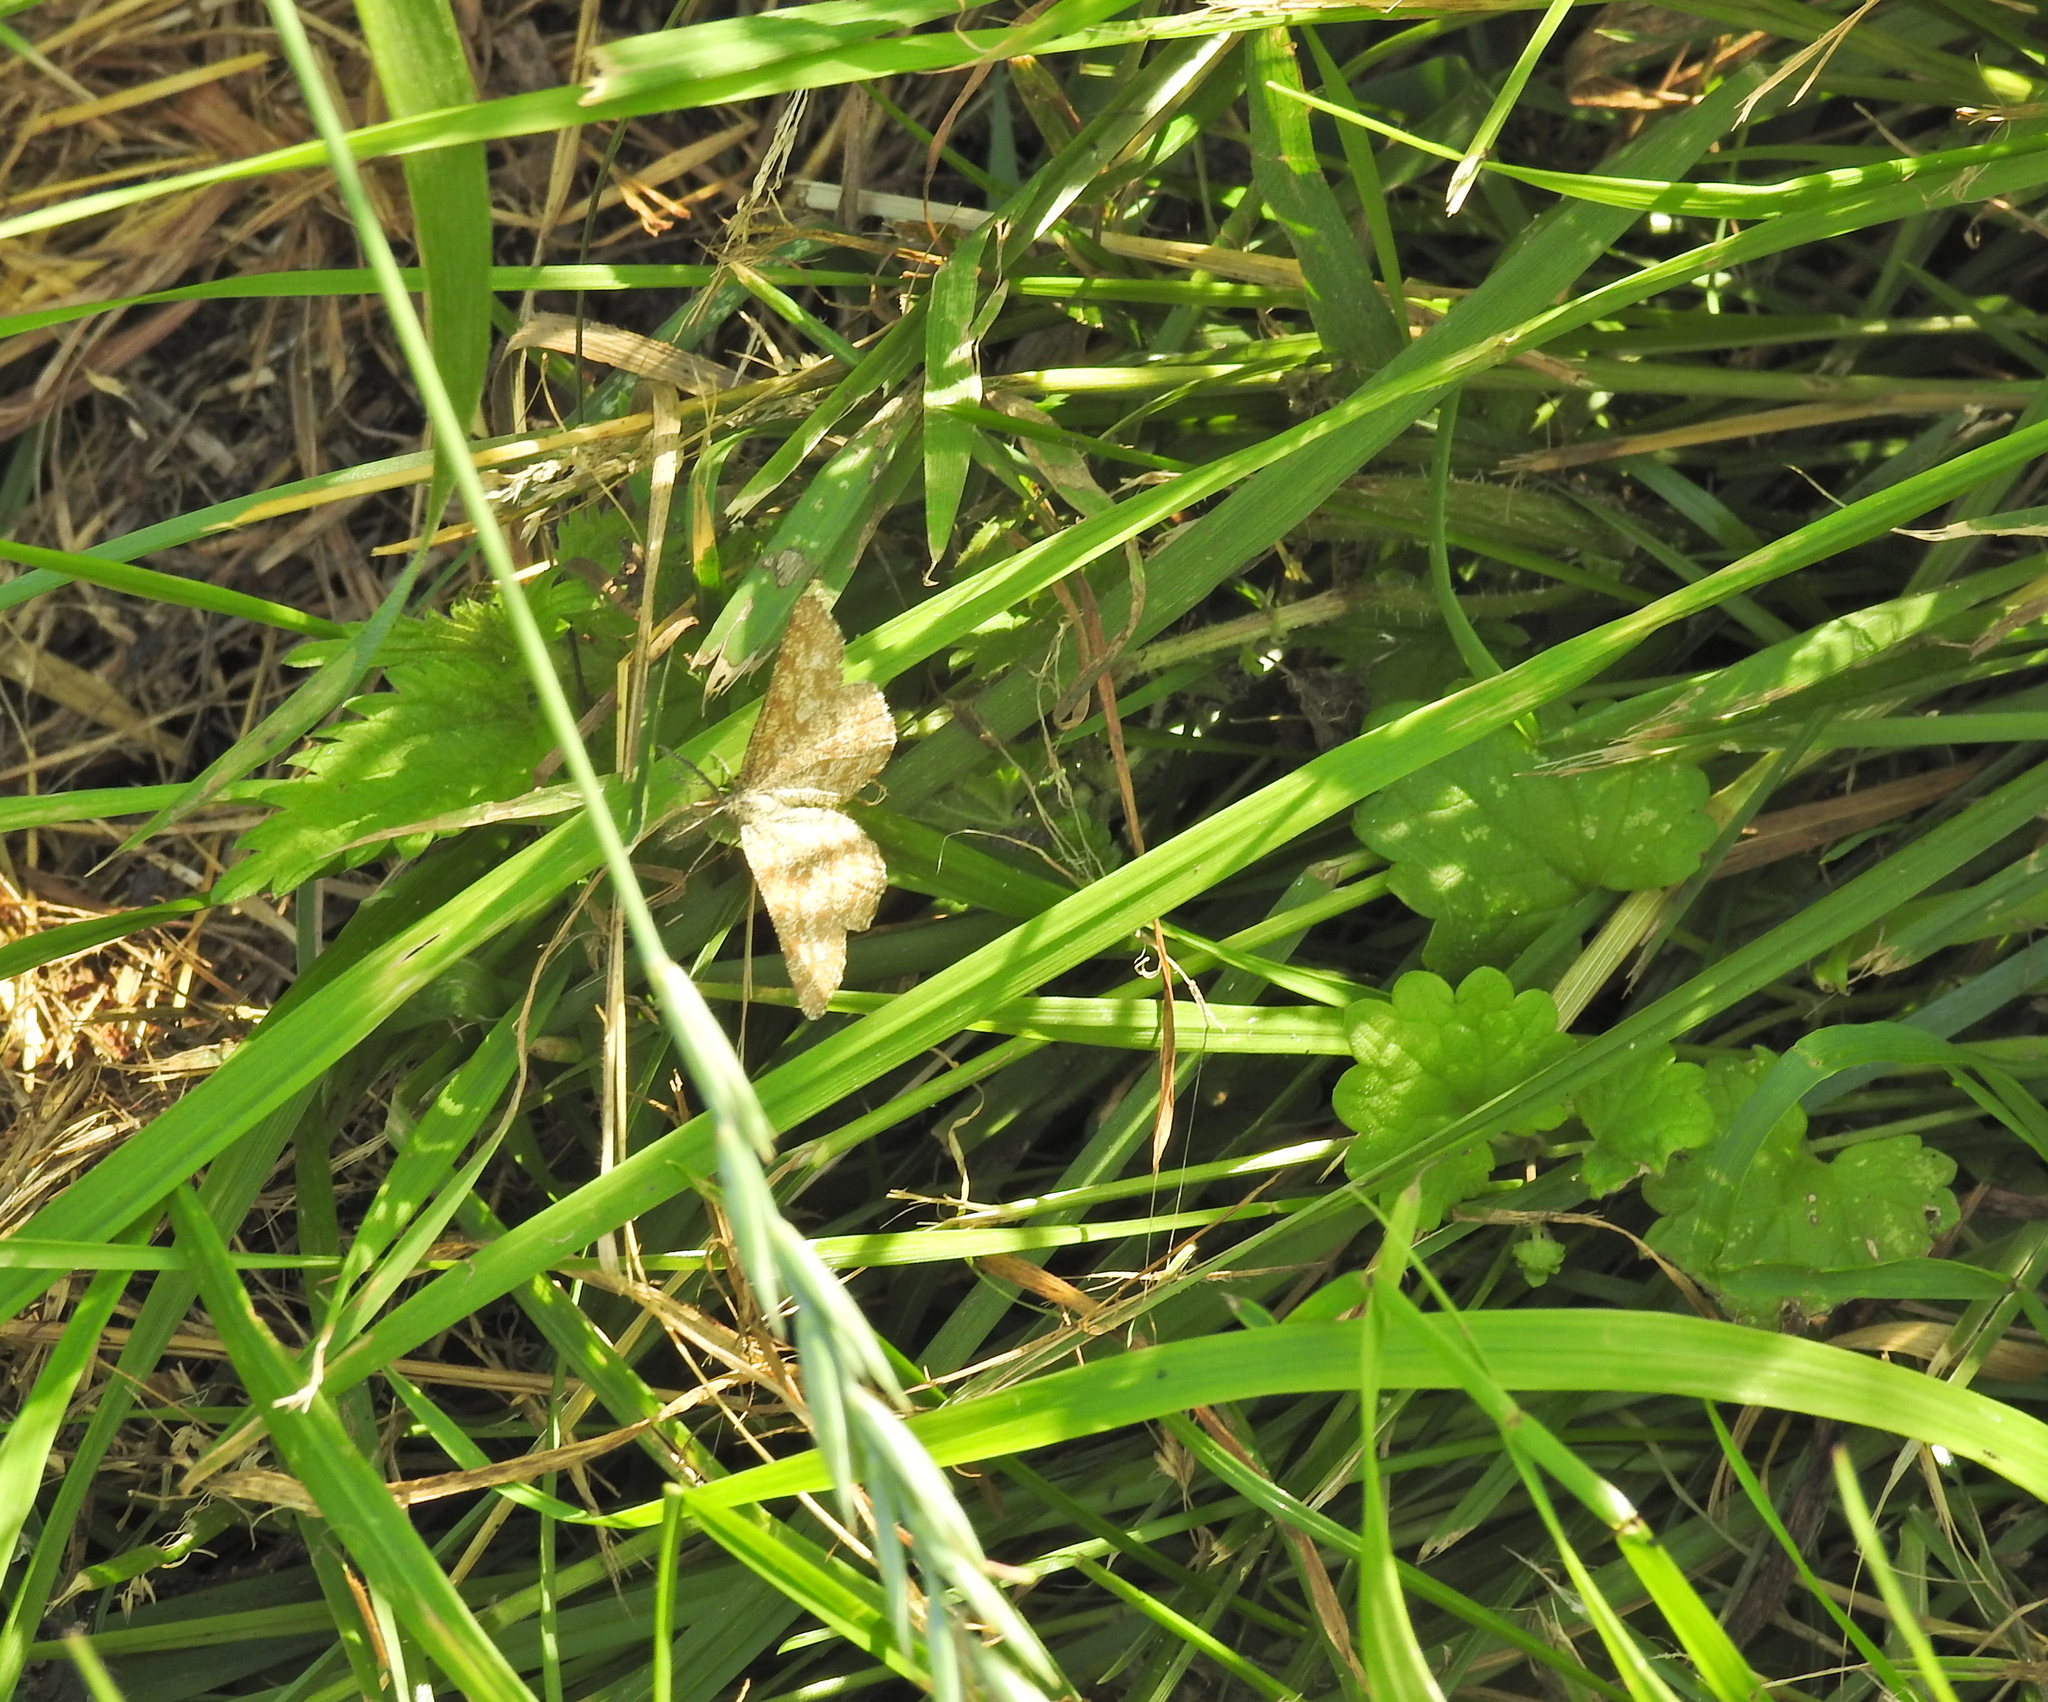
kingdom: Animalia
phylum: Arthropoda
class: Insecta
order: Lepidoptera
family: Geometridae
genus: Ematurga
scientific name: Ematurga atomaria
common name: Common heath
